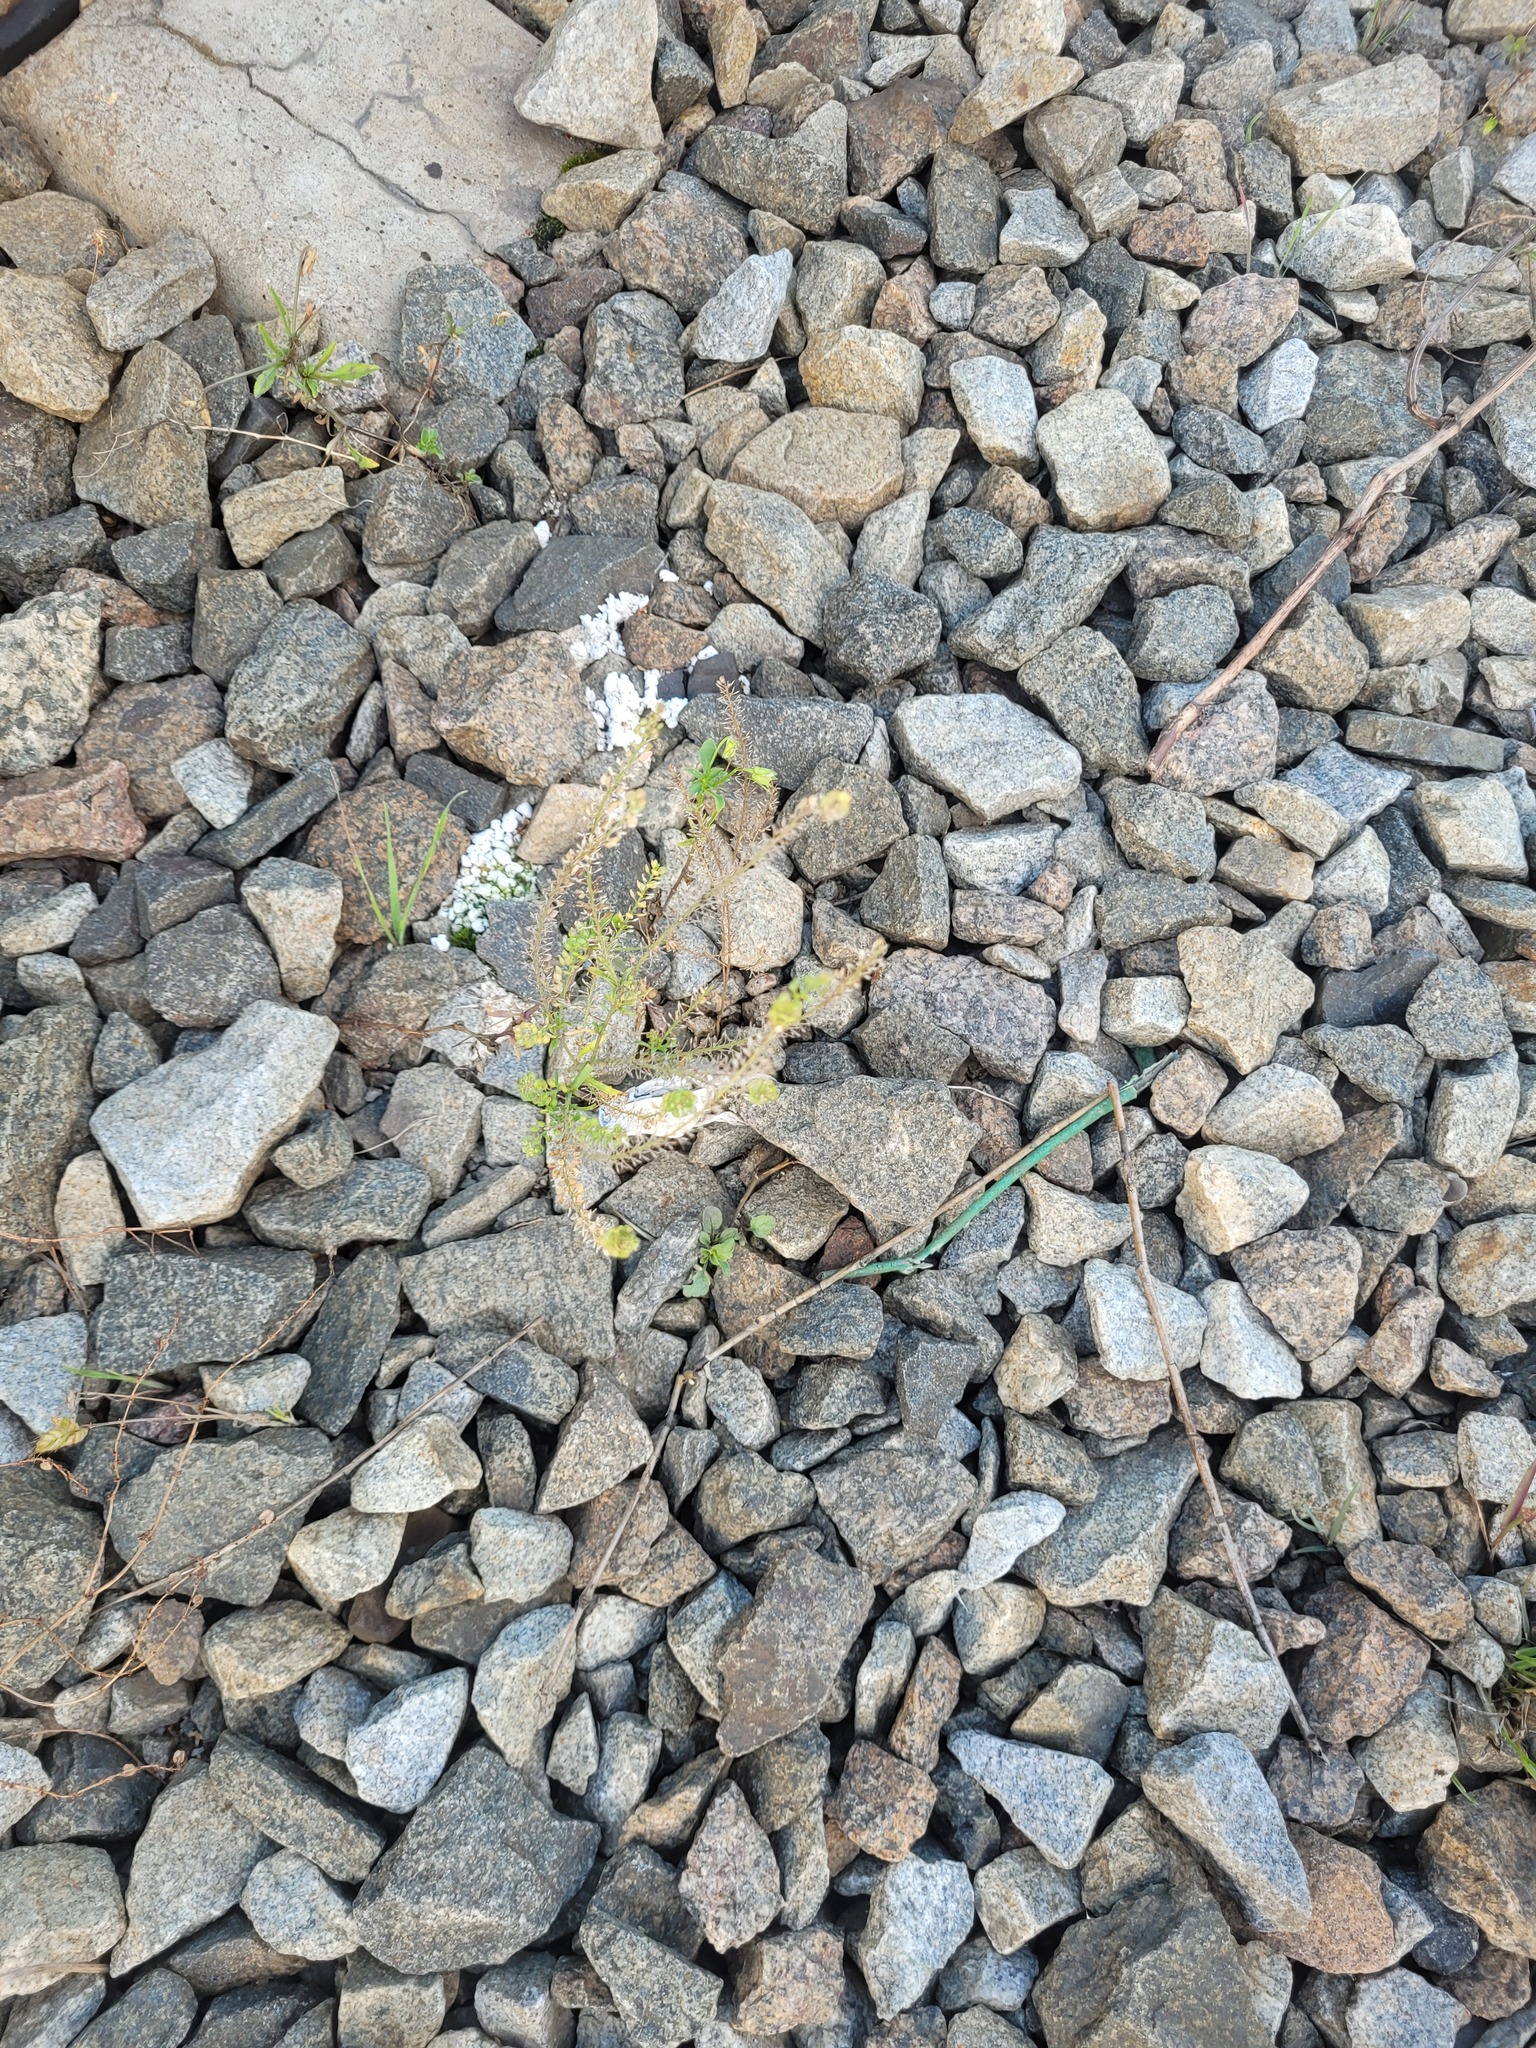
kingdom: Plantae
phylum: Tracheophyta
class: Magnoliopsida
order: Brassicales
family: Brassicaceae
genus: Lepidium
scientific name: Lepidium densiflorum
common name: Miner's pepperwort
